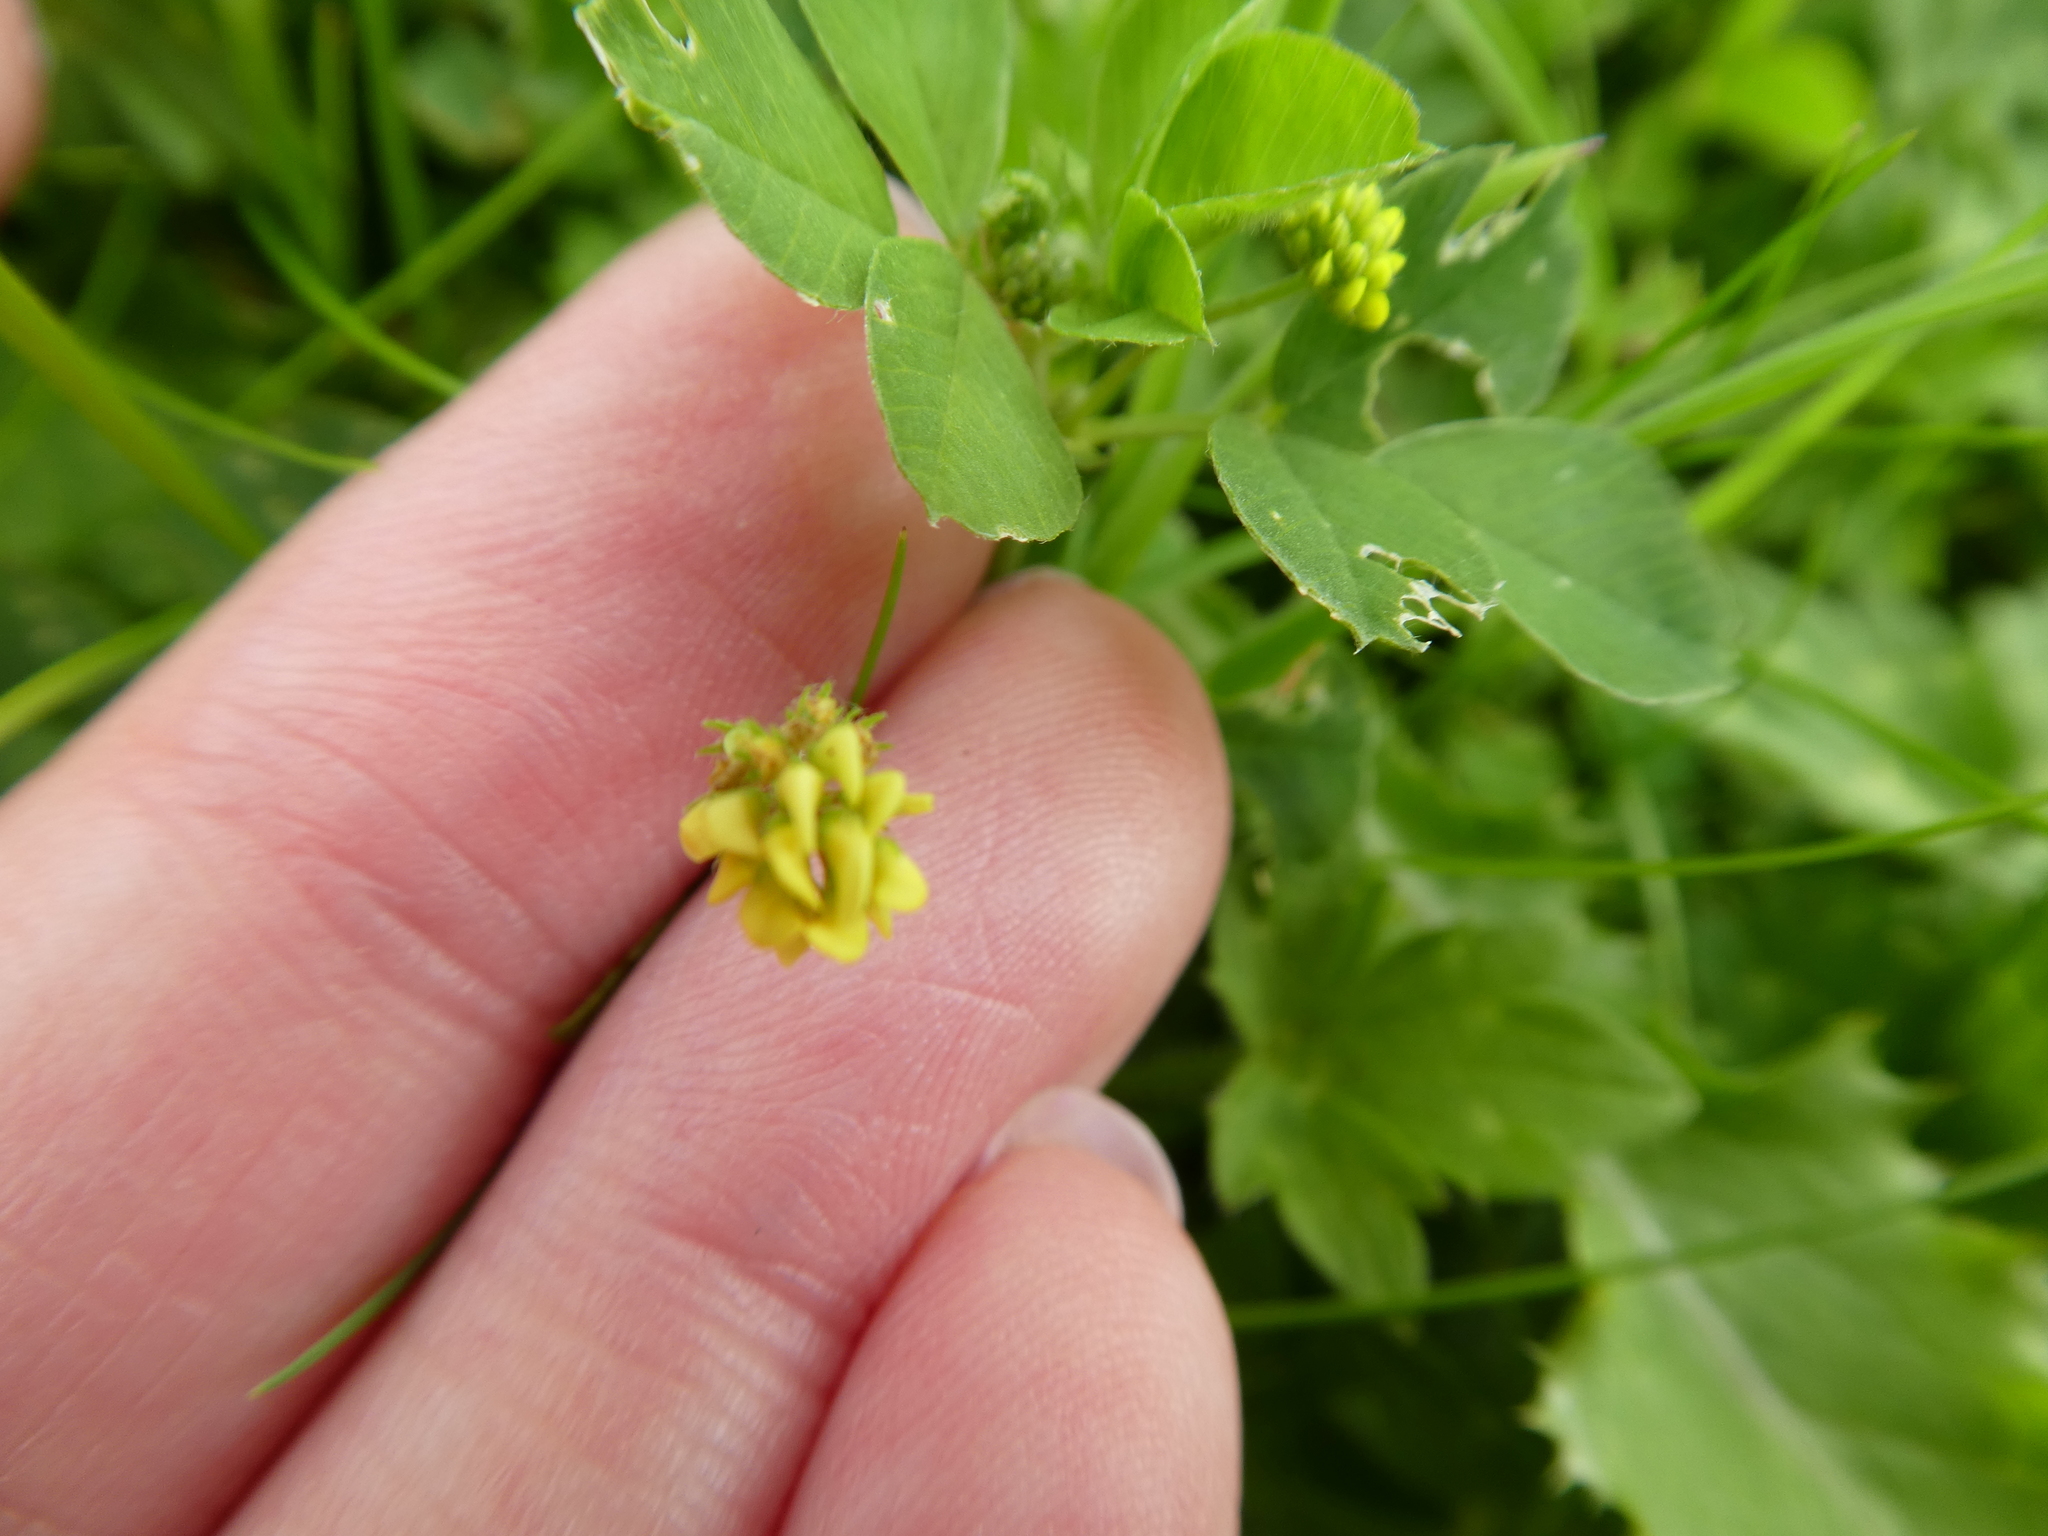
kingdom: Plantae
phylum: Tracheophyta
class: Magnoliopsida
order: Fabales
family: Fabaceae
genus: Medicago
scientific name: Medicago lupulina
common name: Black medick
